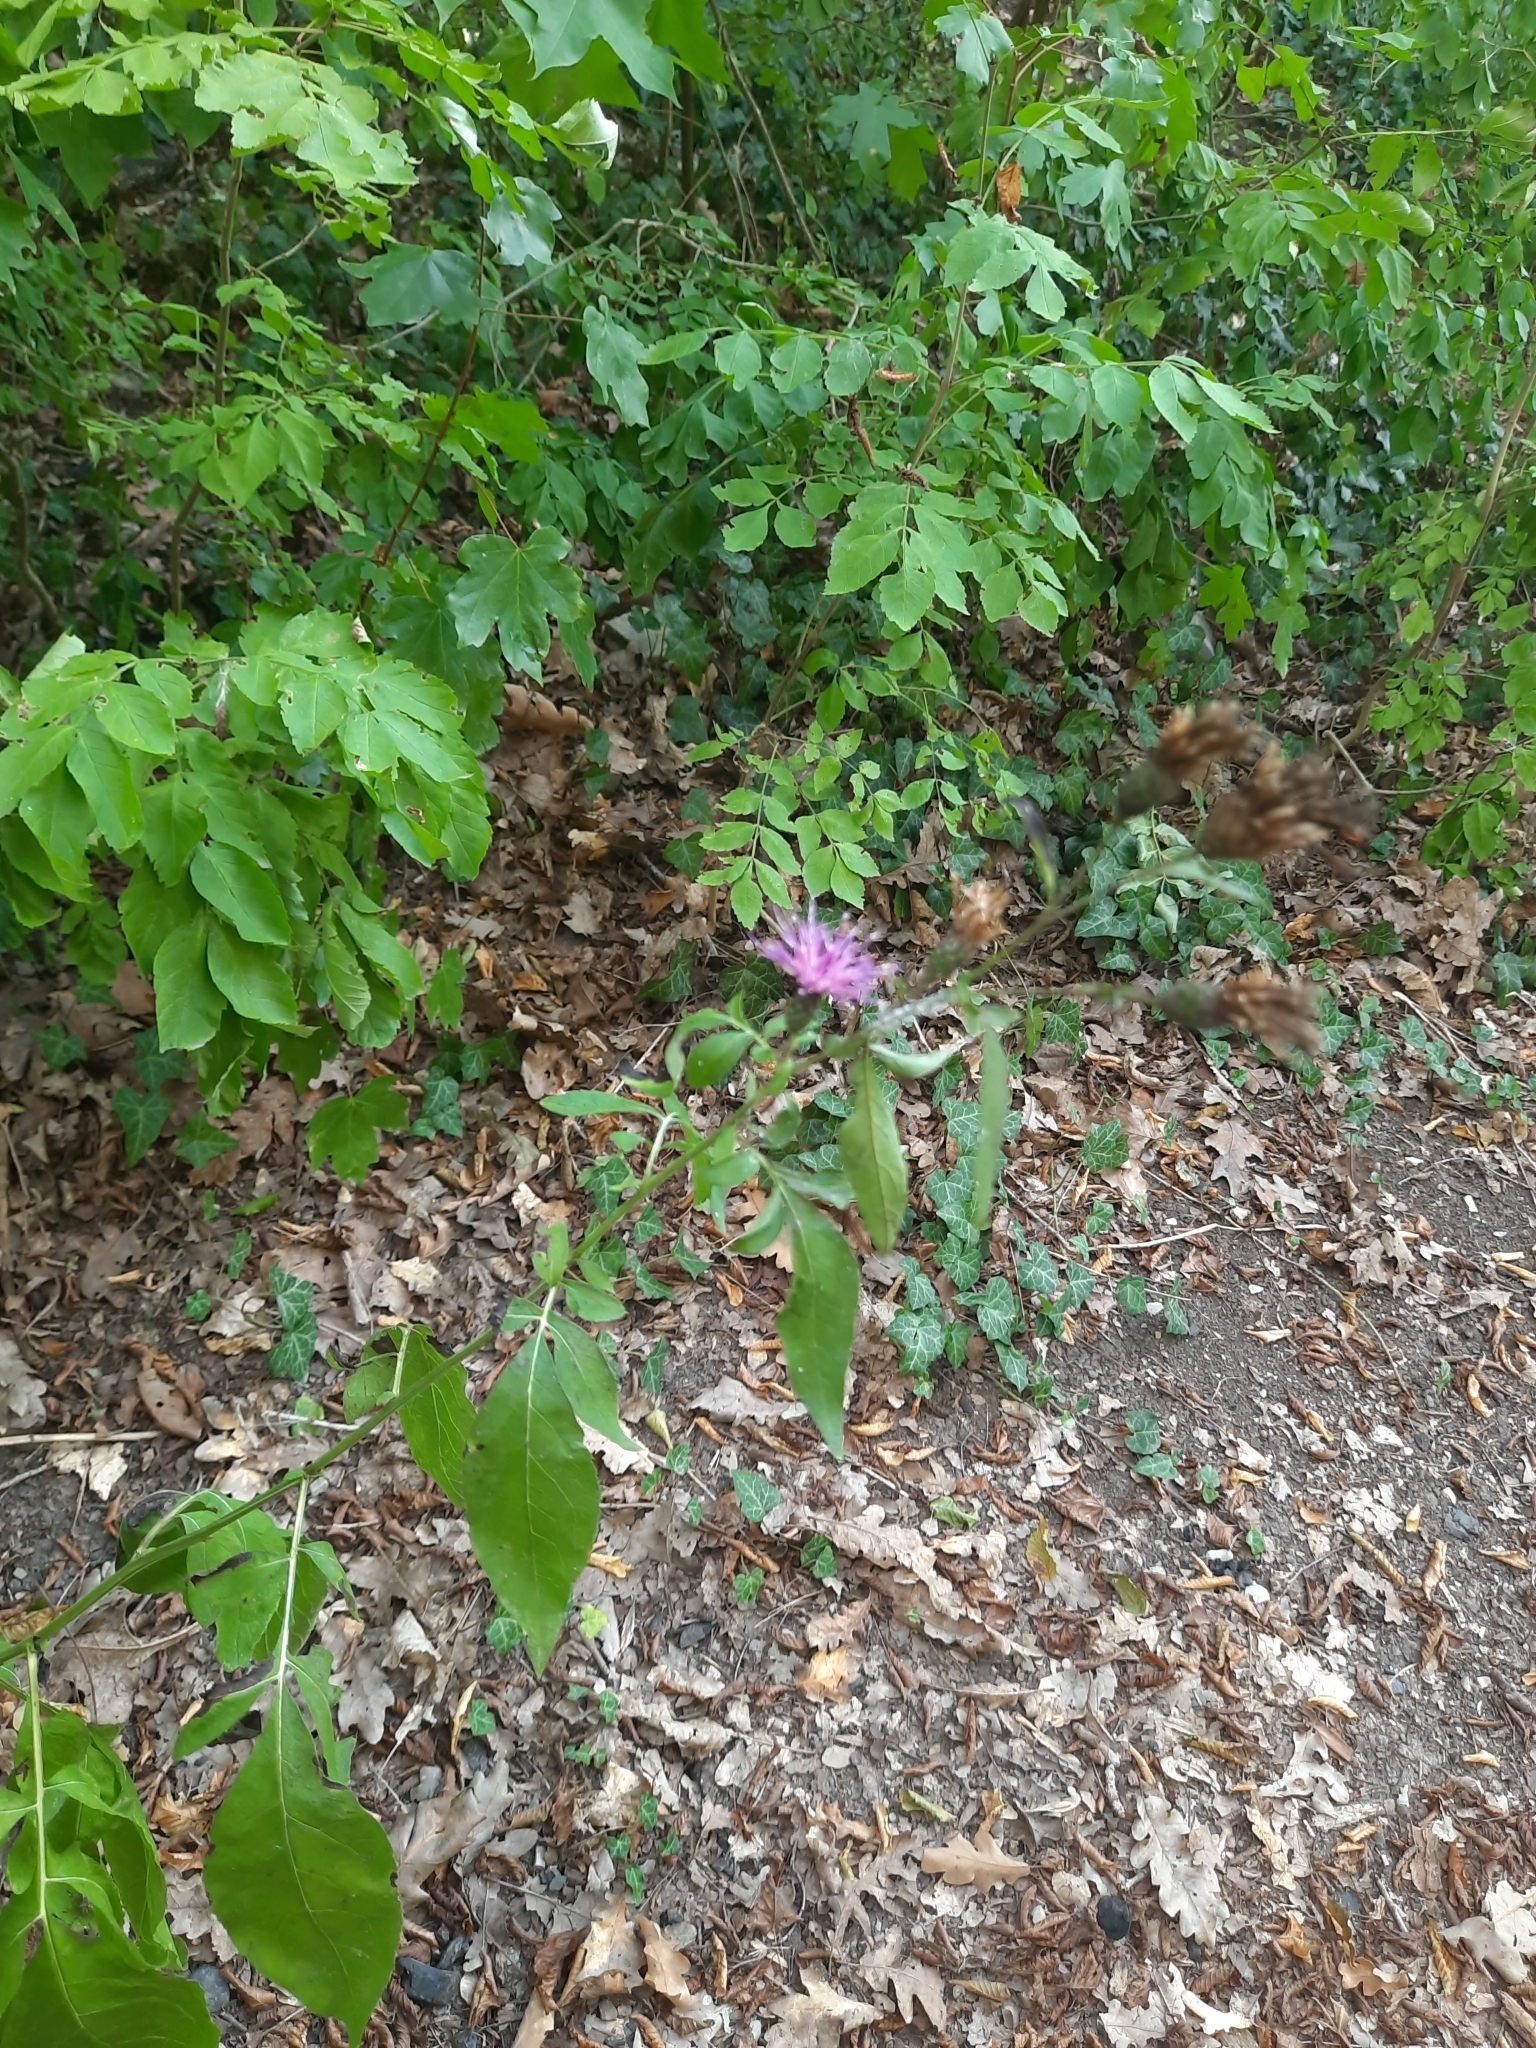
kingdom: Plantae
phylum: Tracheophyta
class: Magnoliopsida
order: Asterales
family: Asteraceae
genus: Klasea
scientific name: Klasea quinquefolia
